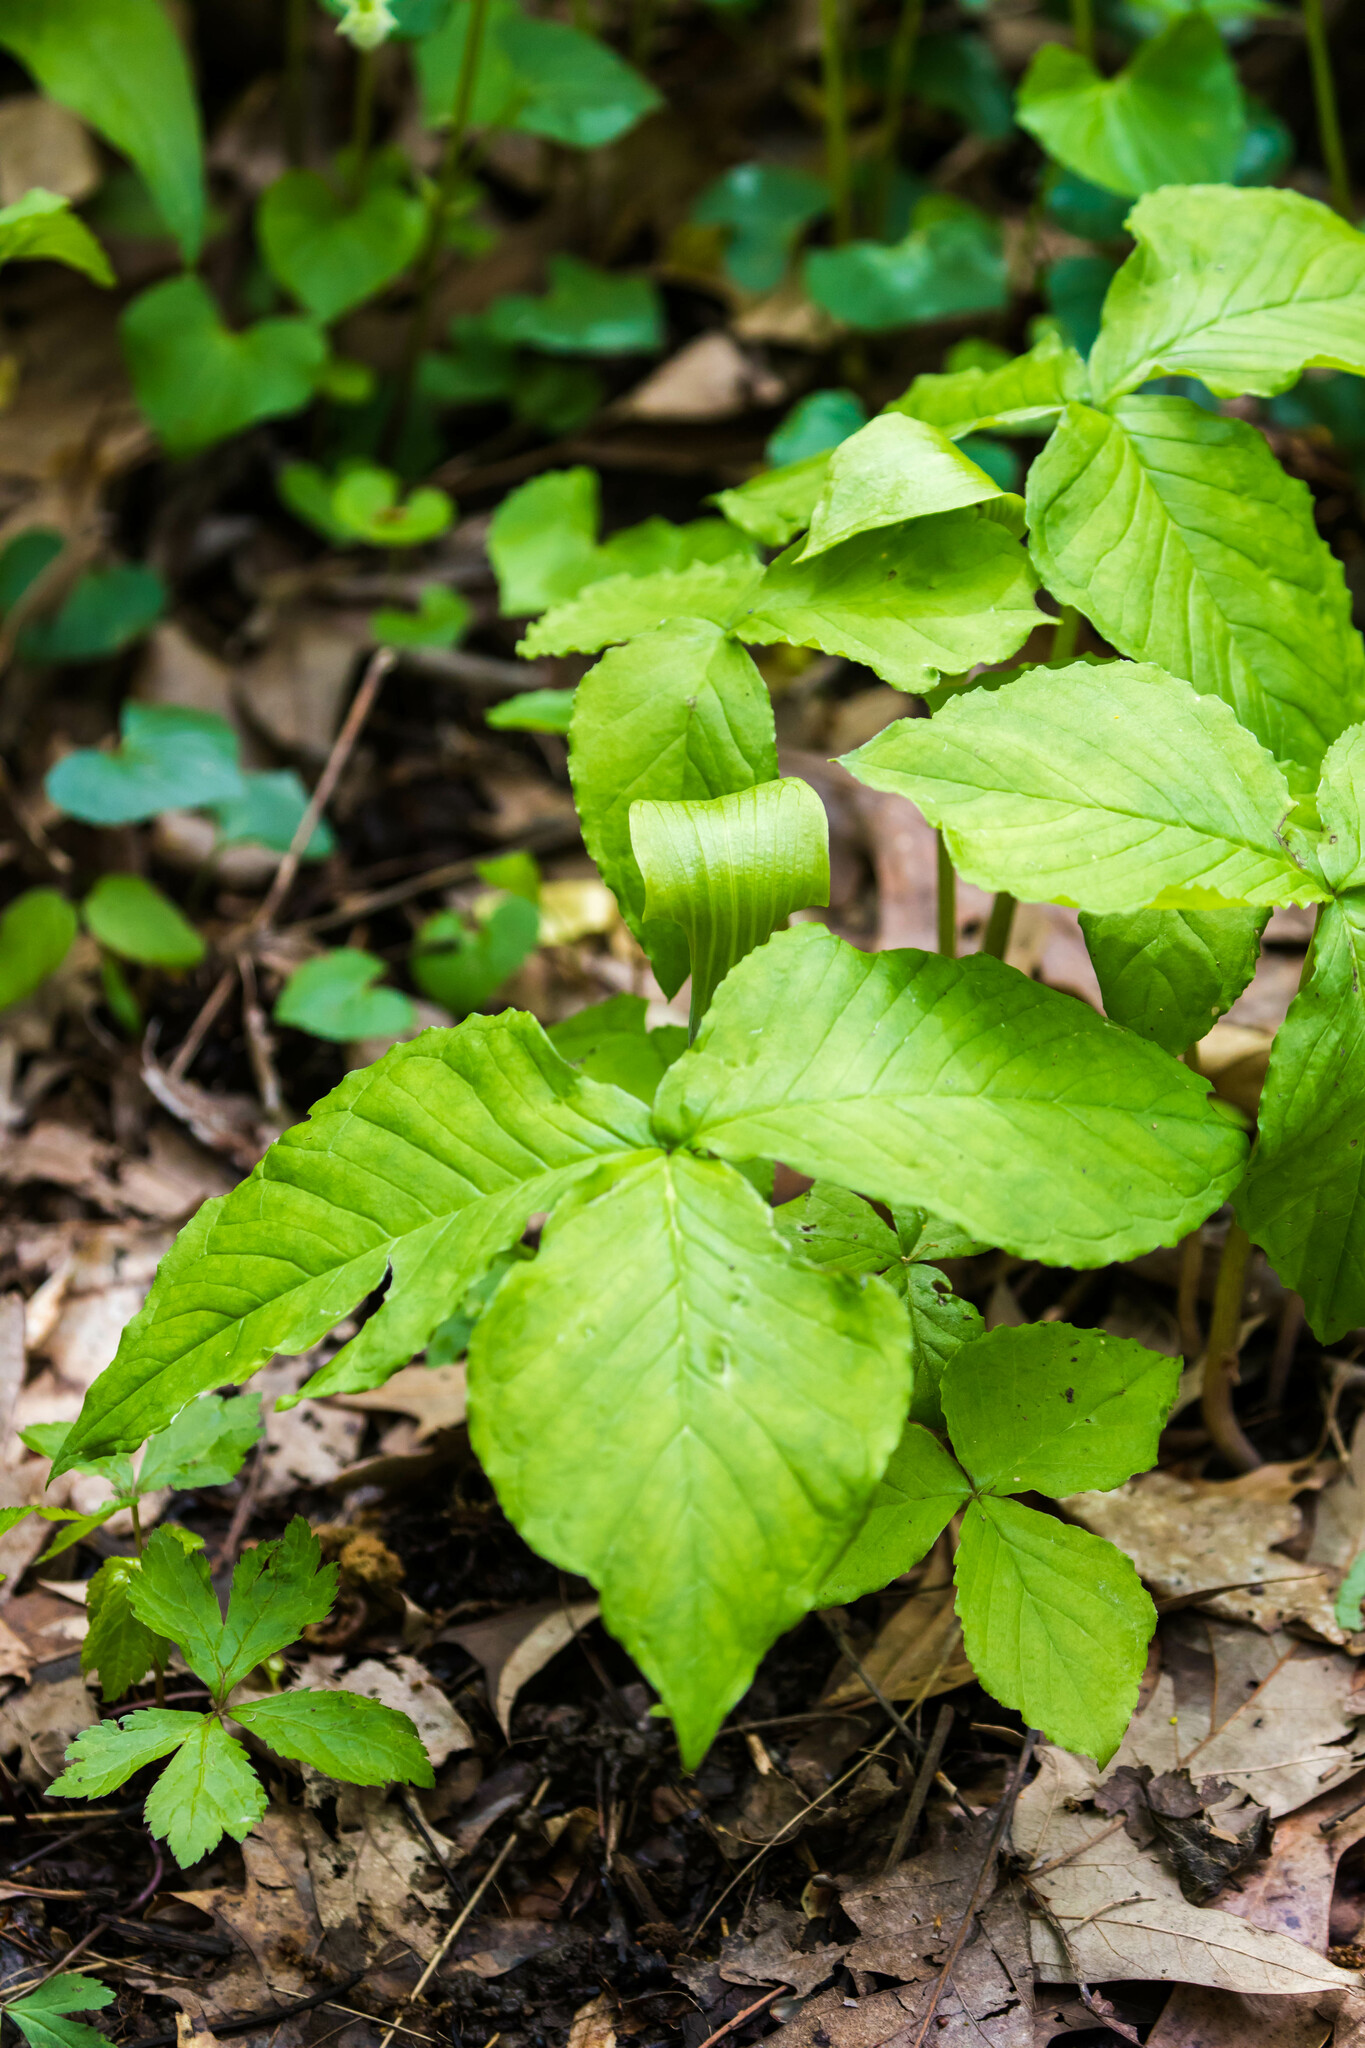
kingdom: Plantae
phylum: Tracheophyta
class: Liliopsida
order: Alismatales
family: Araceae
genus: Arisaema
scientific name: Arisaema triphyllum
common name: Jack-in-the-pulpit
